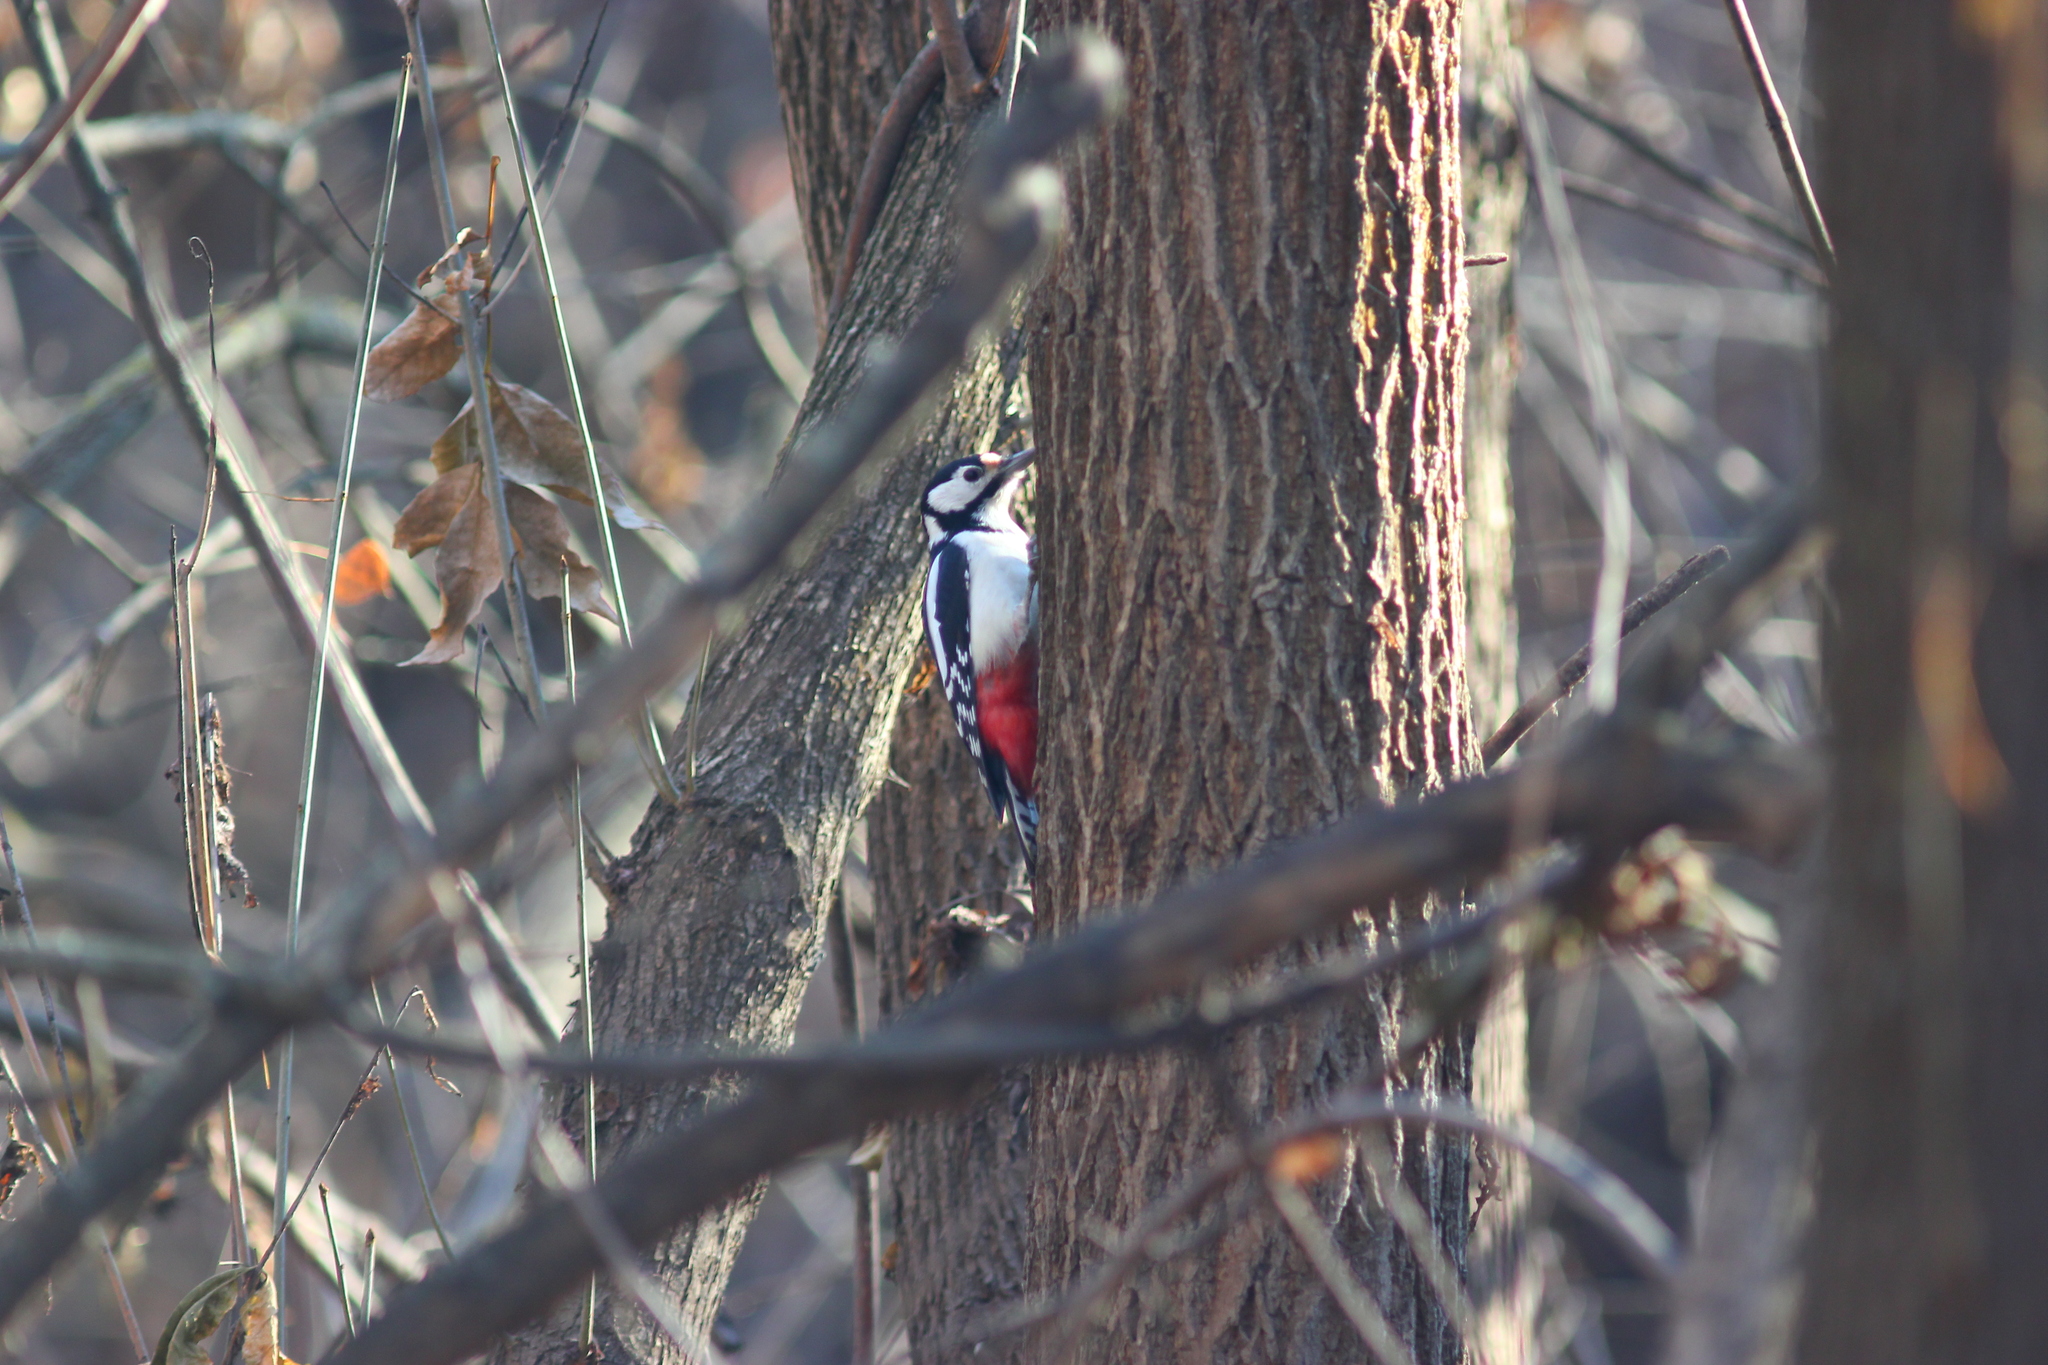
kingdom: Animalia
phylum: Chordata
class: Aves
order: Piciformes
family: Picidae
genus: Dendrocopos
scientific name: Dendrocopos major
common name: Great spotted woodpecker
